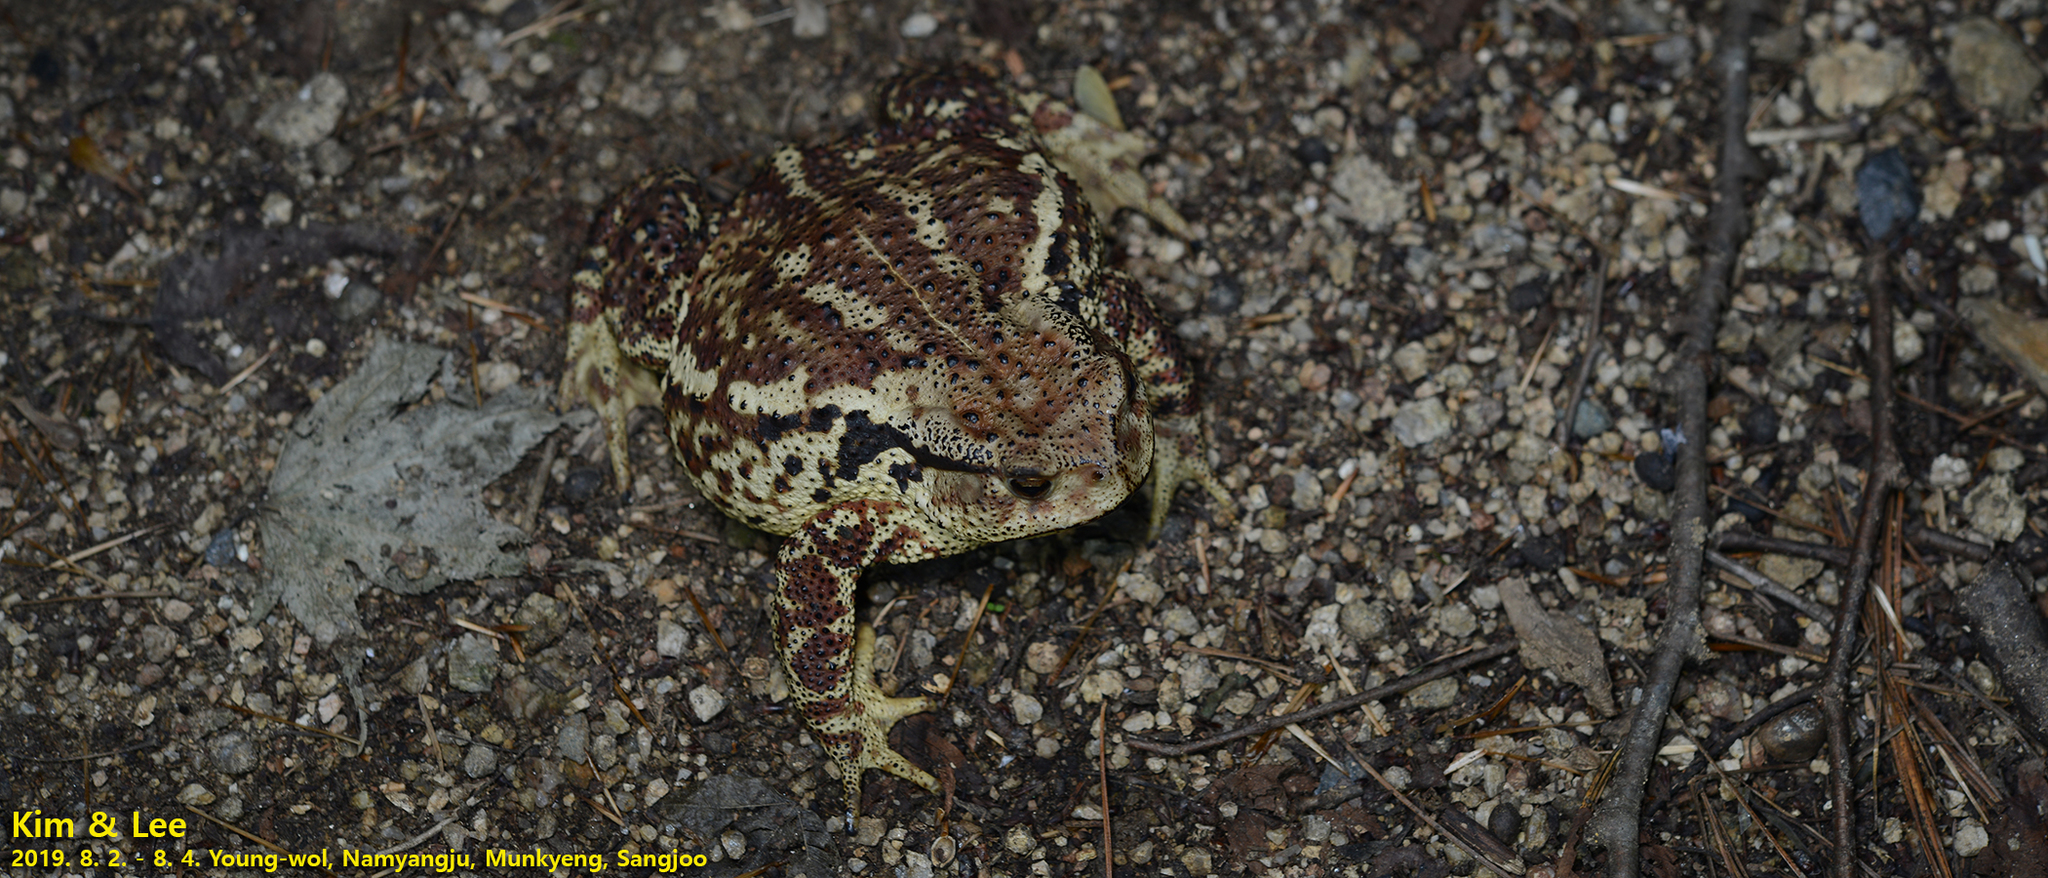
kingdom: Animalia
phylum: Chordata
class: Amphibia
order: Anura
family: Bufonidae
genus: Bufo
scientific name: Bufo gargarizans
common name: Asiatic toad
